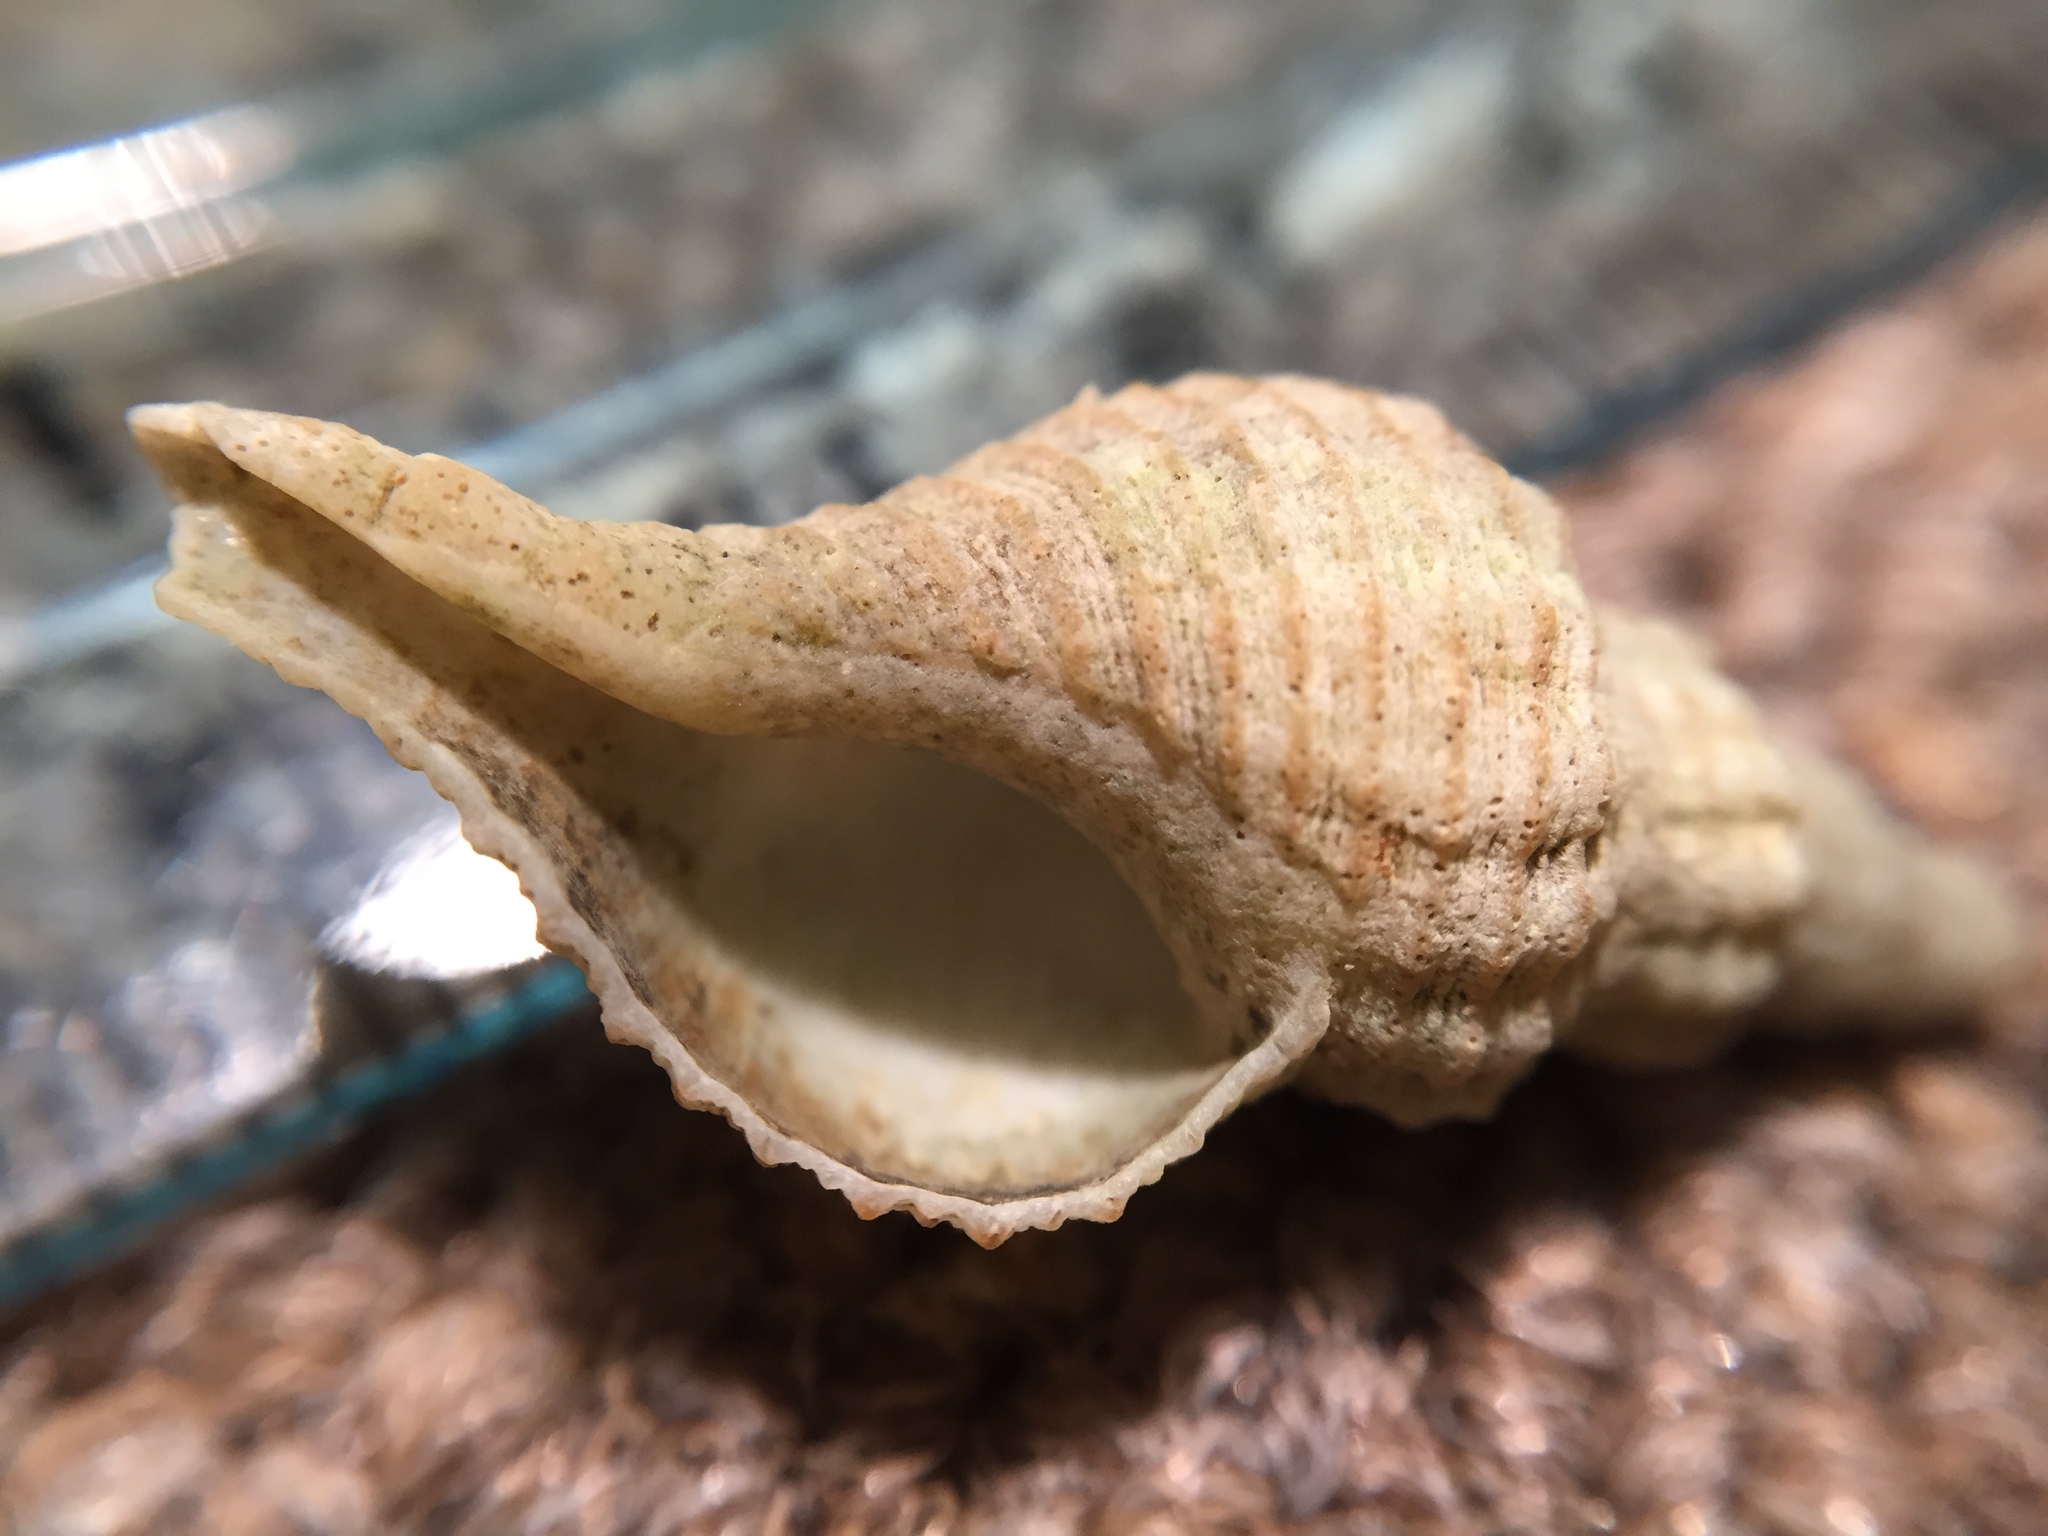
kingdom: Animalia
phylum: Mollusca
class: Gastropoda
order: Neogastropoda
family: Austrosiphonidae
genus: Penion
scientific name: Penion sulcatus
